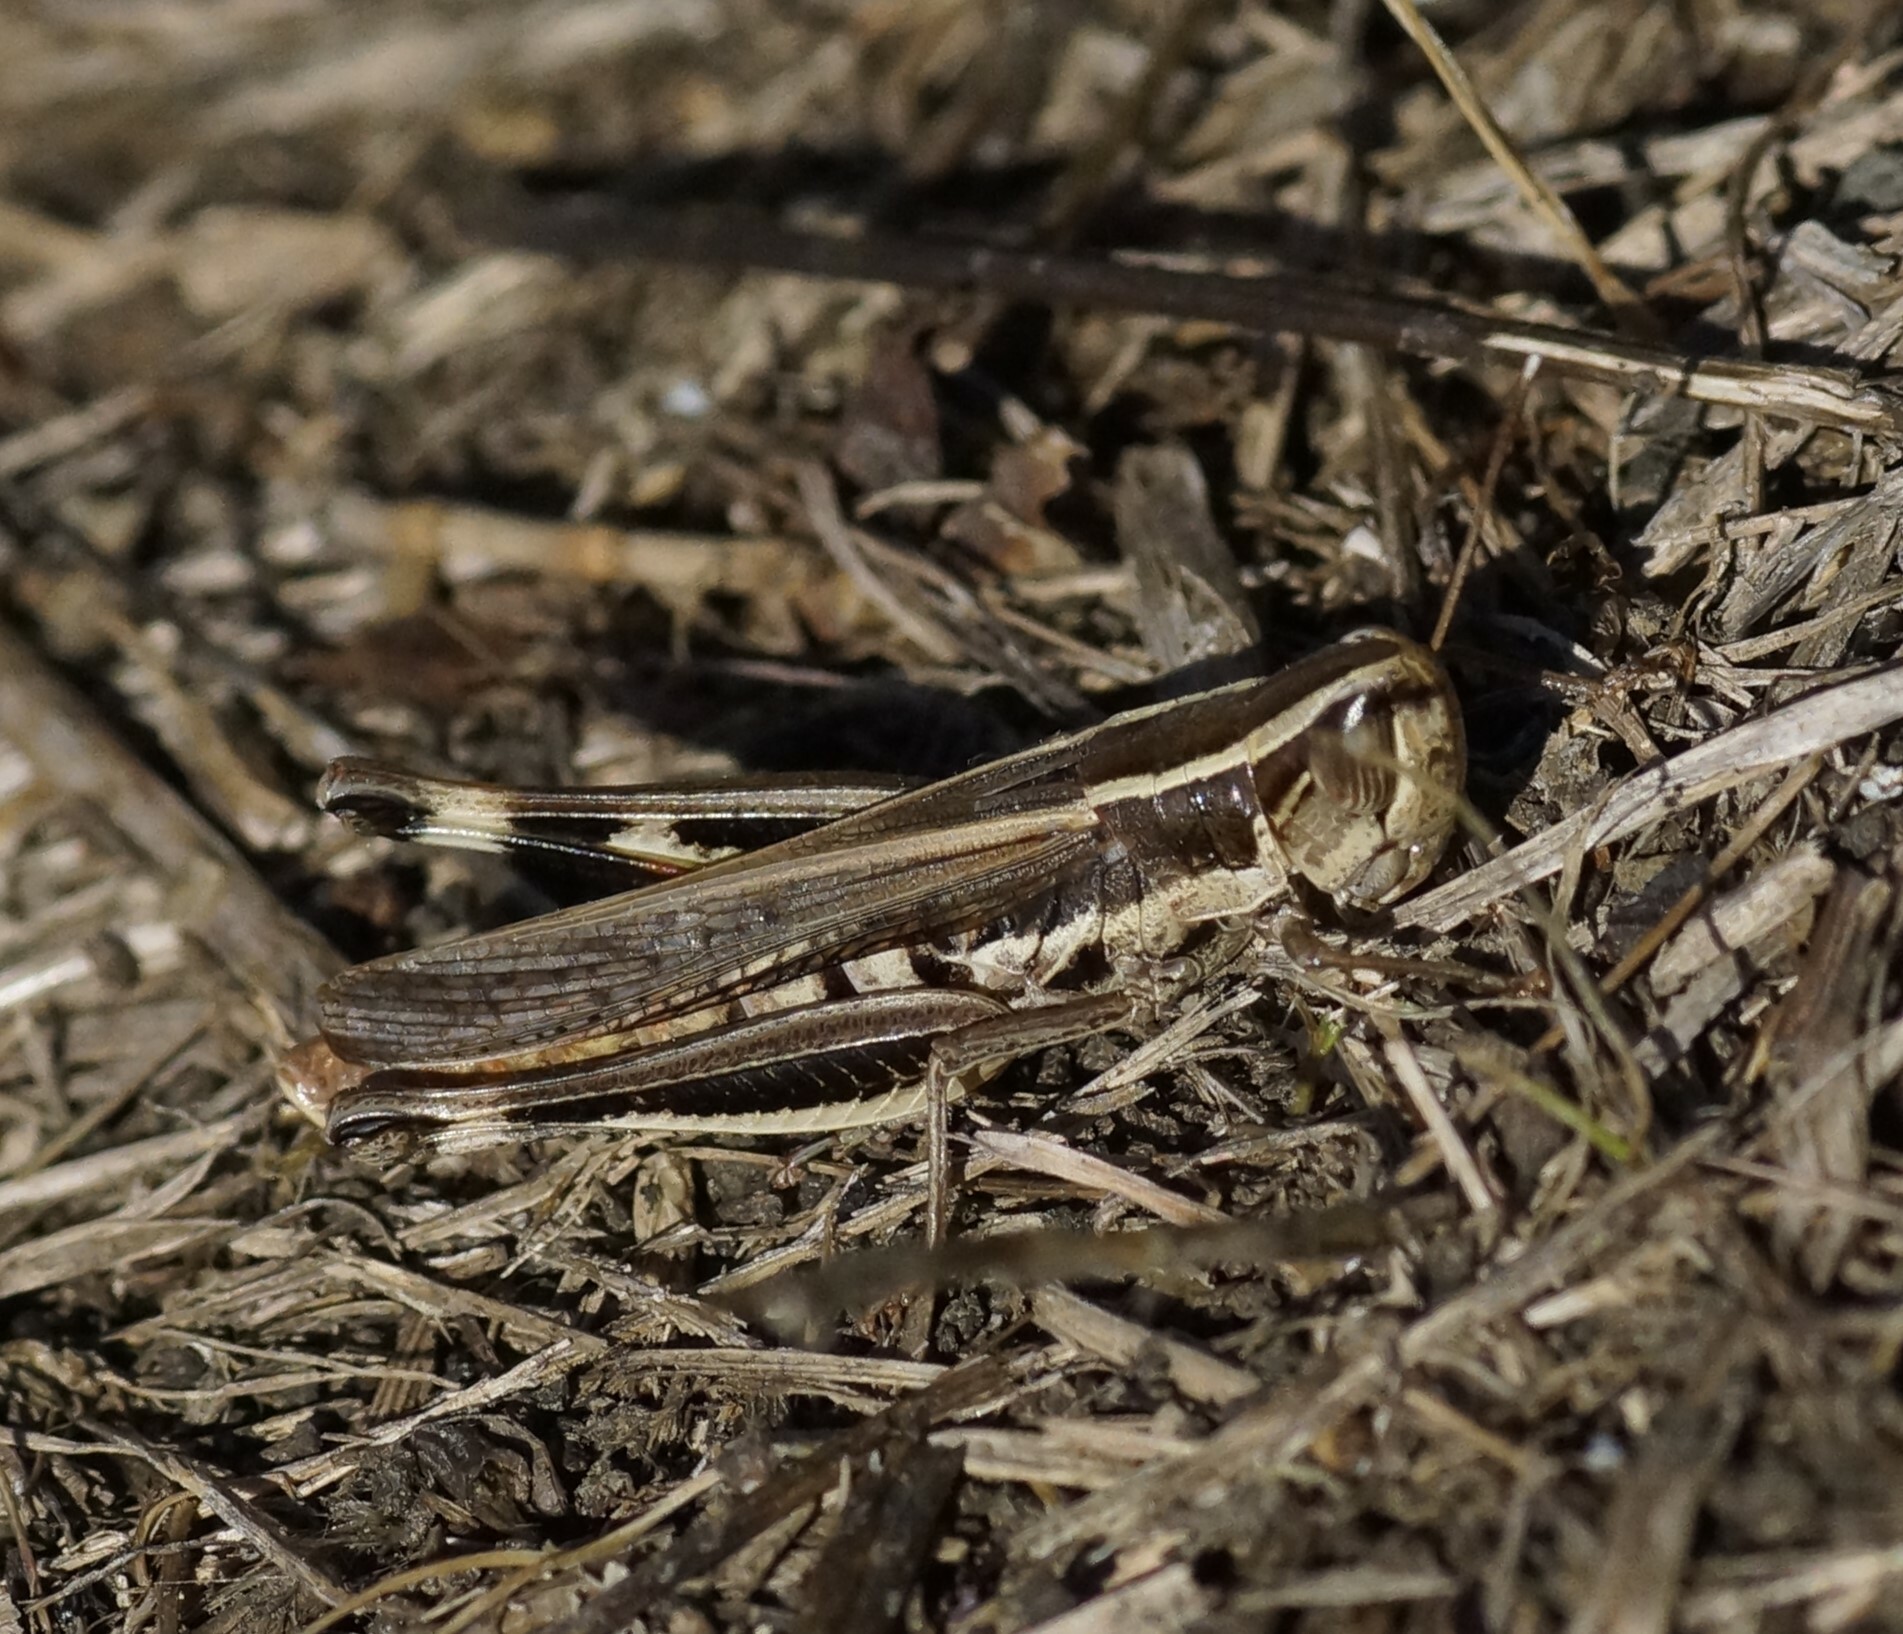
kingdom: Animalia
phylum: Arthropoda
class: Insecta
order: Orthoptera
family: Acrididae
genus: Macrotona
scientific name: Macrotona securiformis
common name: Inland macrotona
